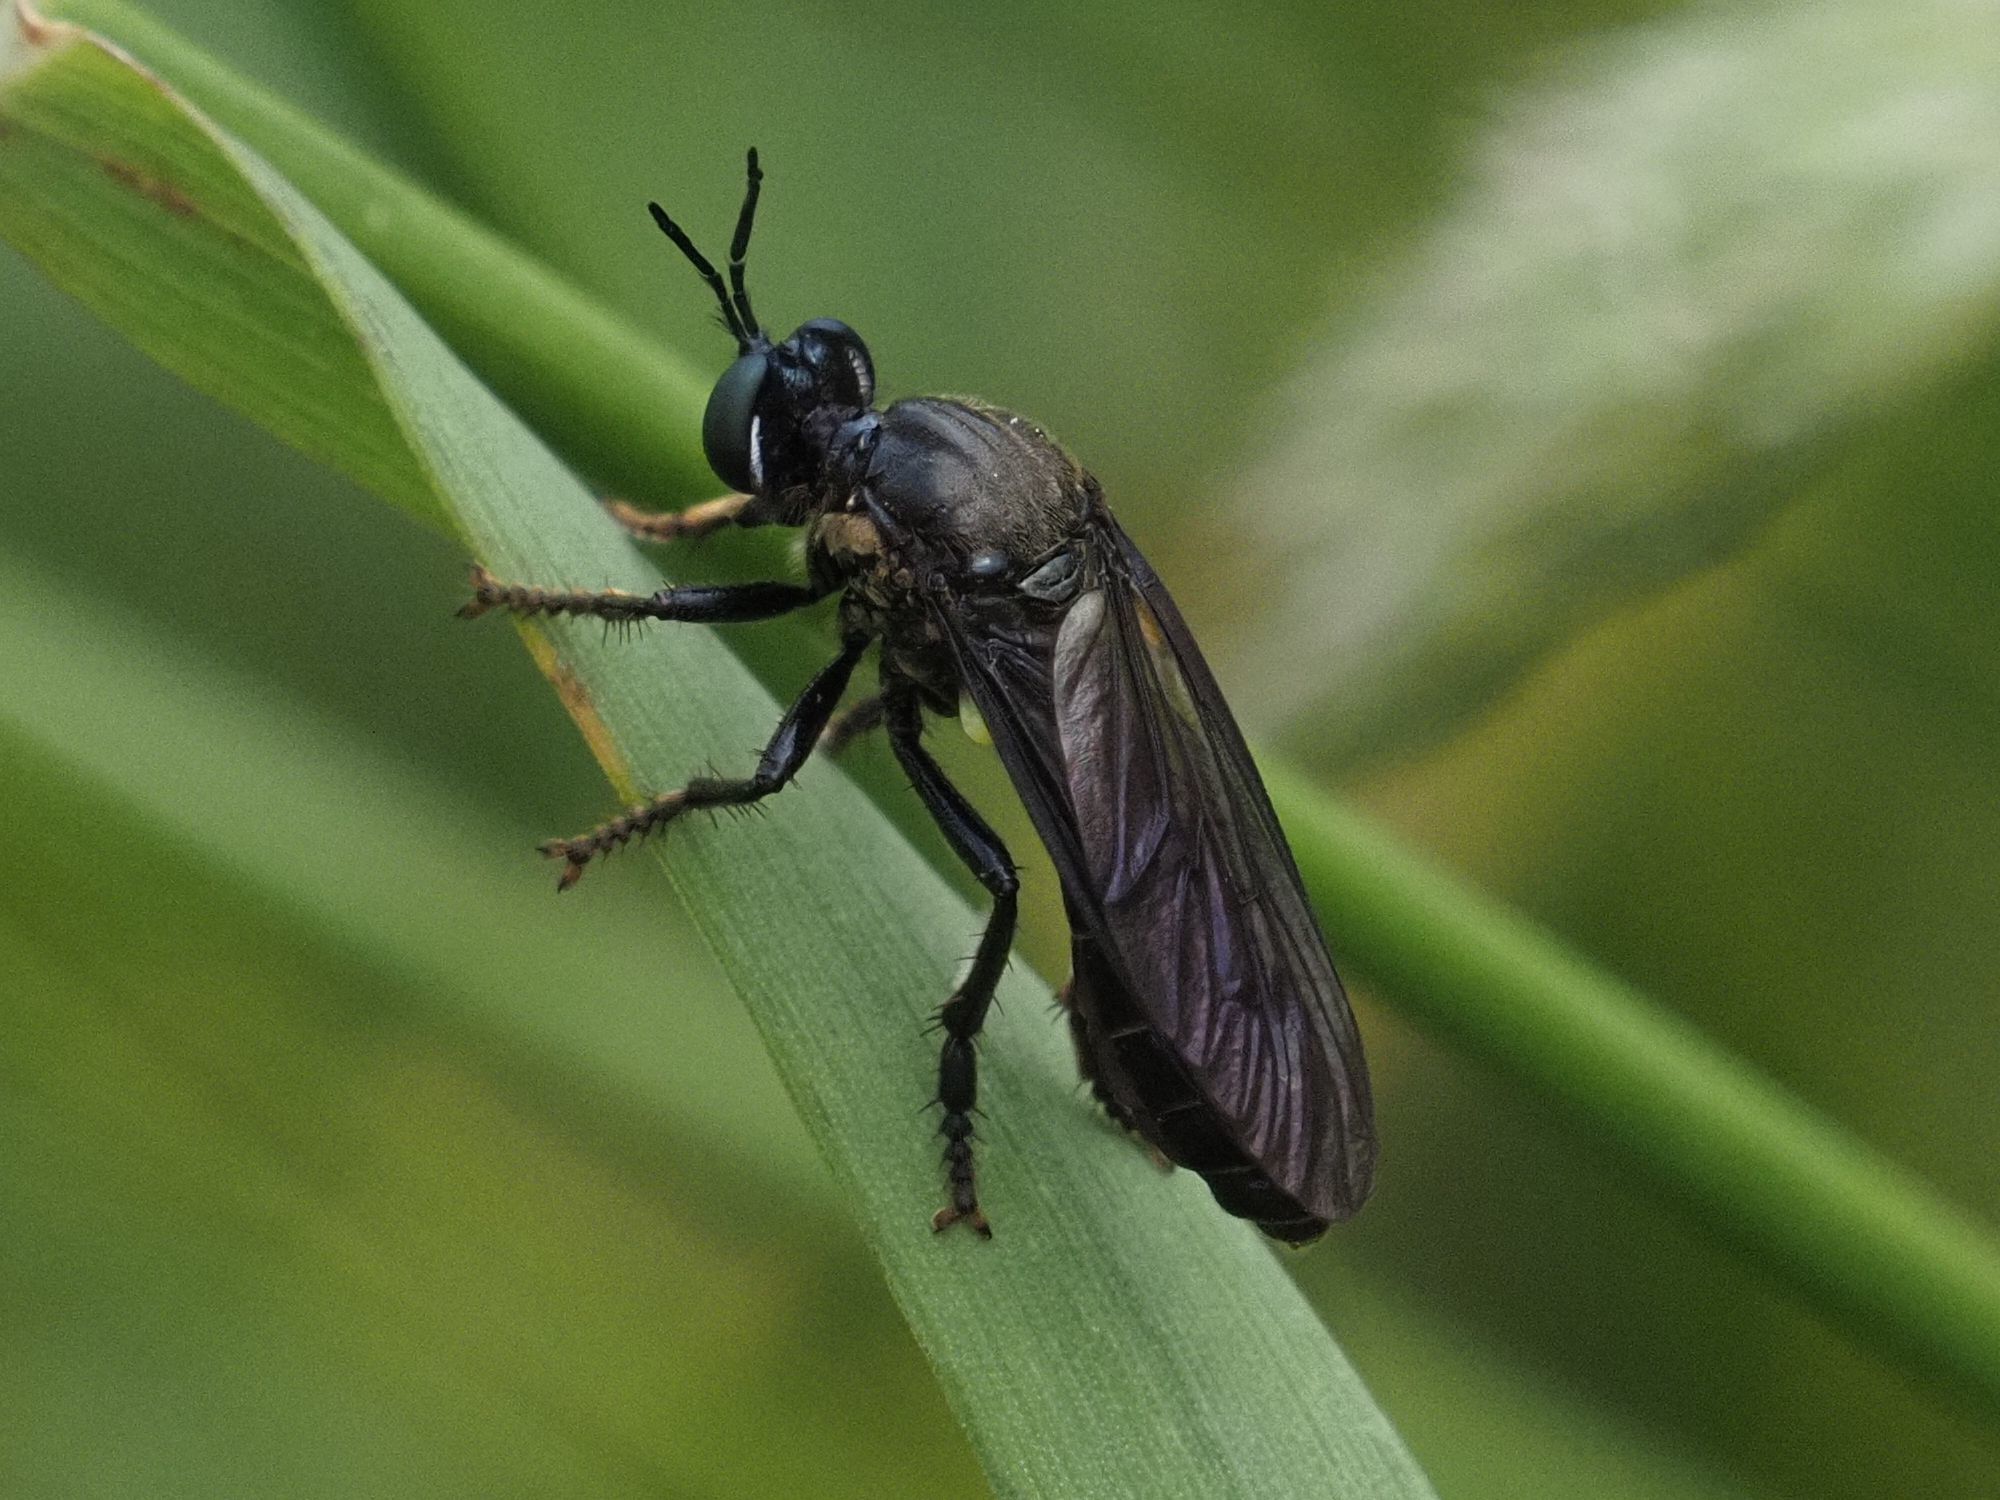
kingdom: Animalia
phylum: Arthropoda
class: Insecta
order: Diptera
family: Asilidae
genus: Dioctria
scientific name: Dioctria atricapilla
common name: Violet black-legged
